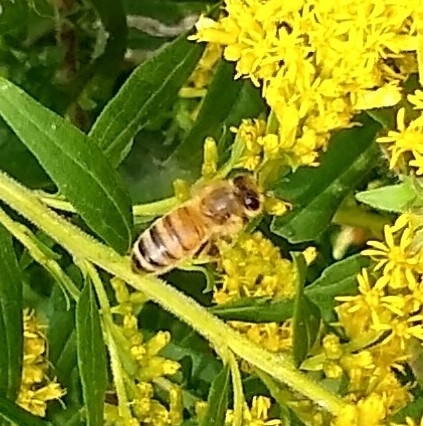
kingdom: Animalia
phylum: Arthropoda
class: Insecta
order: Hymenoptera
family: Apidae
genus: Apis
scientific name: Apis mellifera
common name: Honey bee
